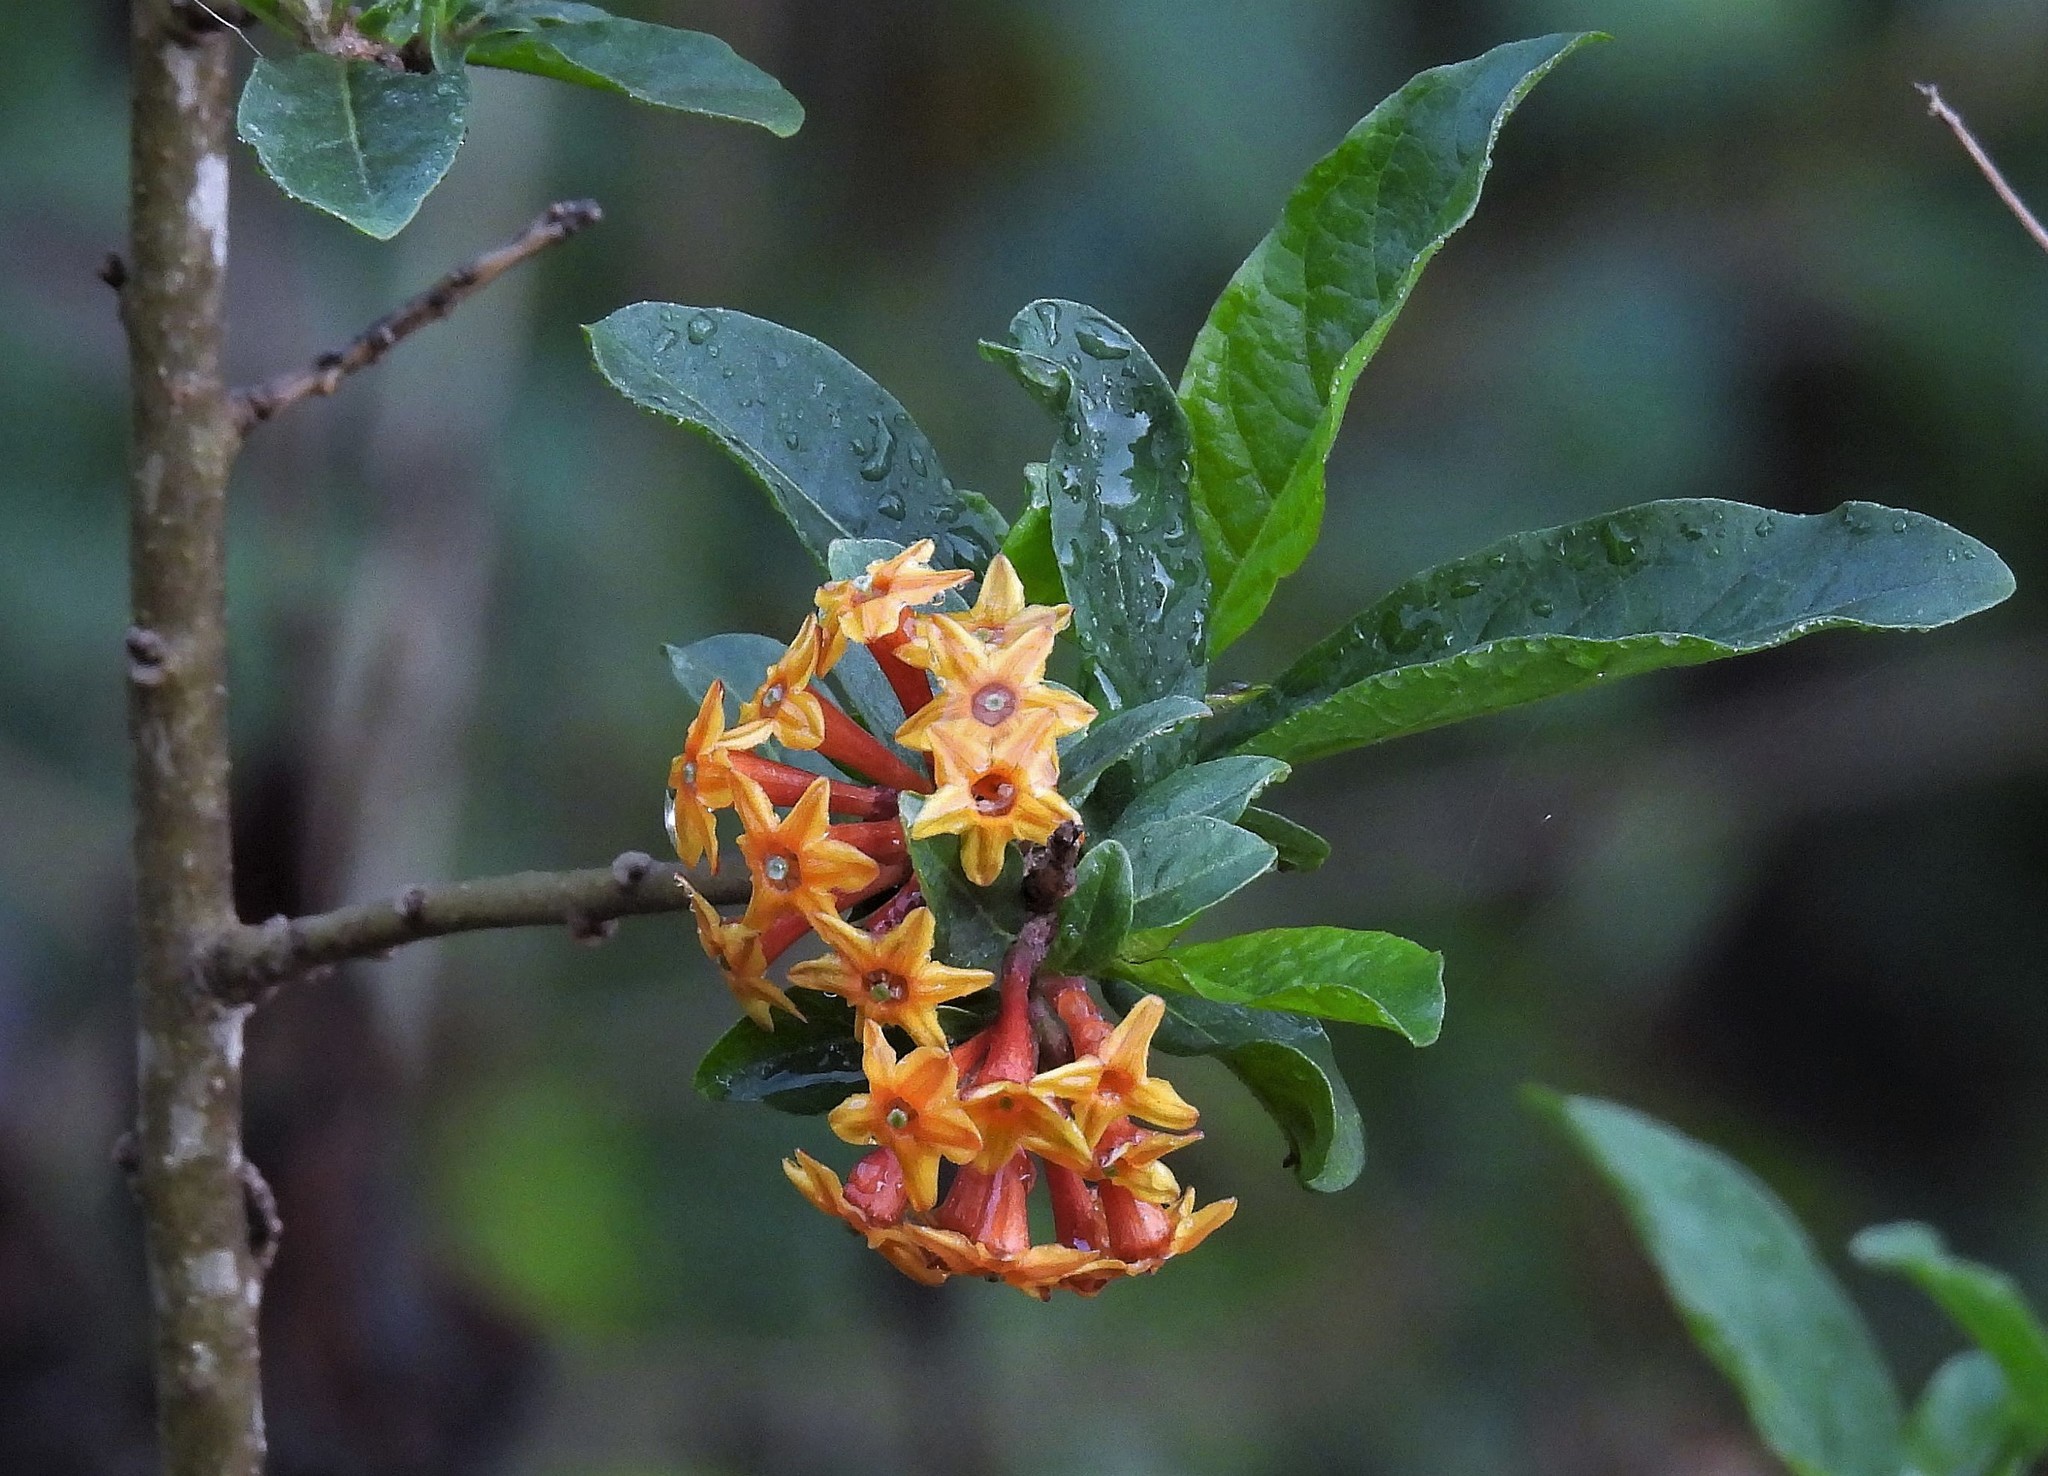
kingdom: Plantae
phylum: Tracheophyta
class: Magnoliopsida
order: Solanales
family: Solanaceae
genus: Cestrum
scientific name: Cestrum parqui
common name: Chilean cestrum
